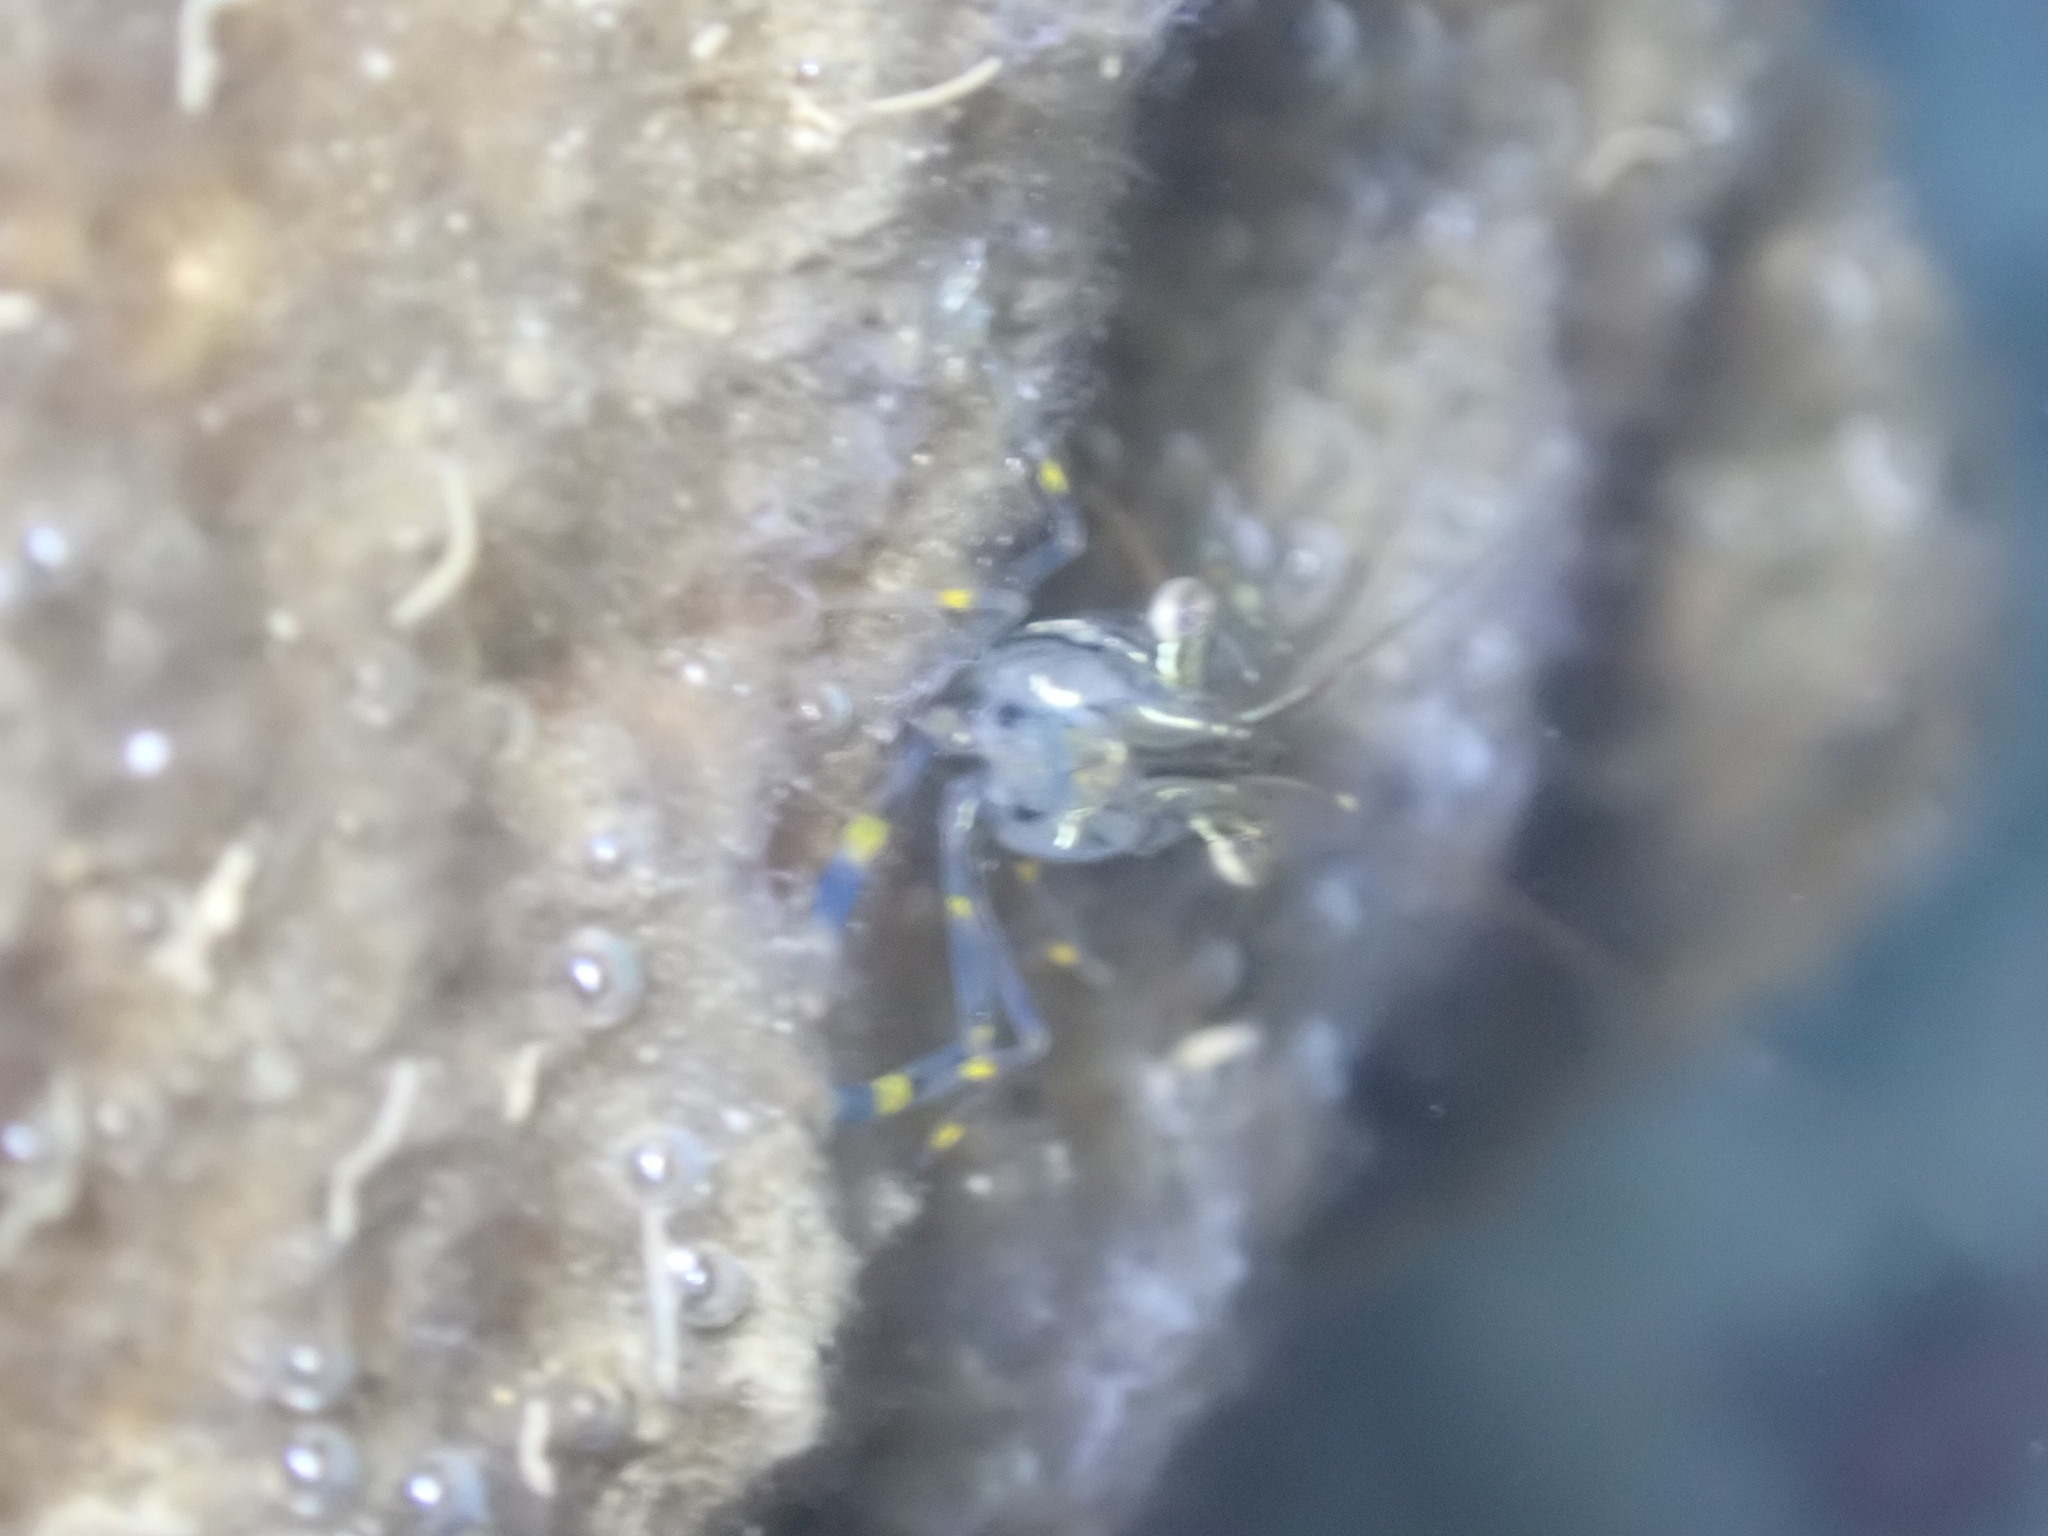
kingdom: Animalia
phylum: Arthropoda
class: Malacostraca
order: Decapoda
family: Palaemonidae
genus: Palaemon
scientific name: Palaemon elegans
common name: Grass prawm
